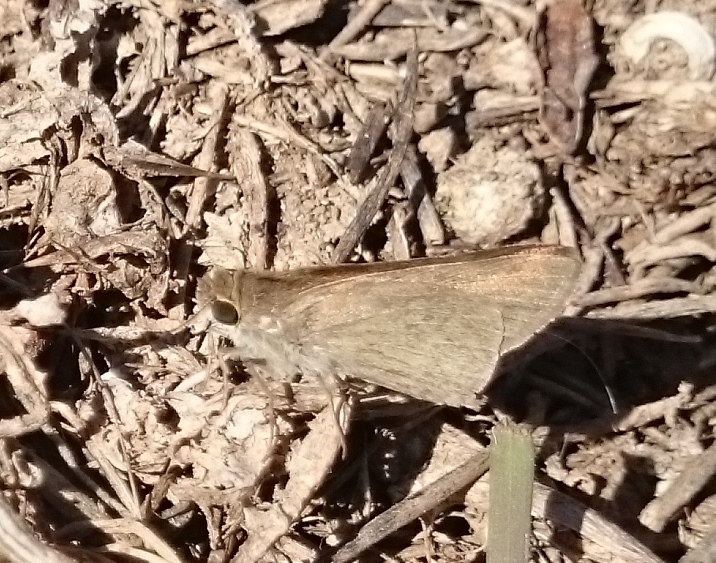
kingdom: Animalia
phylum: Arthropoda
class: Insecta
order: Lepidoptera
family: Hesperiidae
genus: Gegenes
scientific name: Gegenes nostrodamus
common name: Mediterranean skipper
